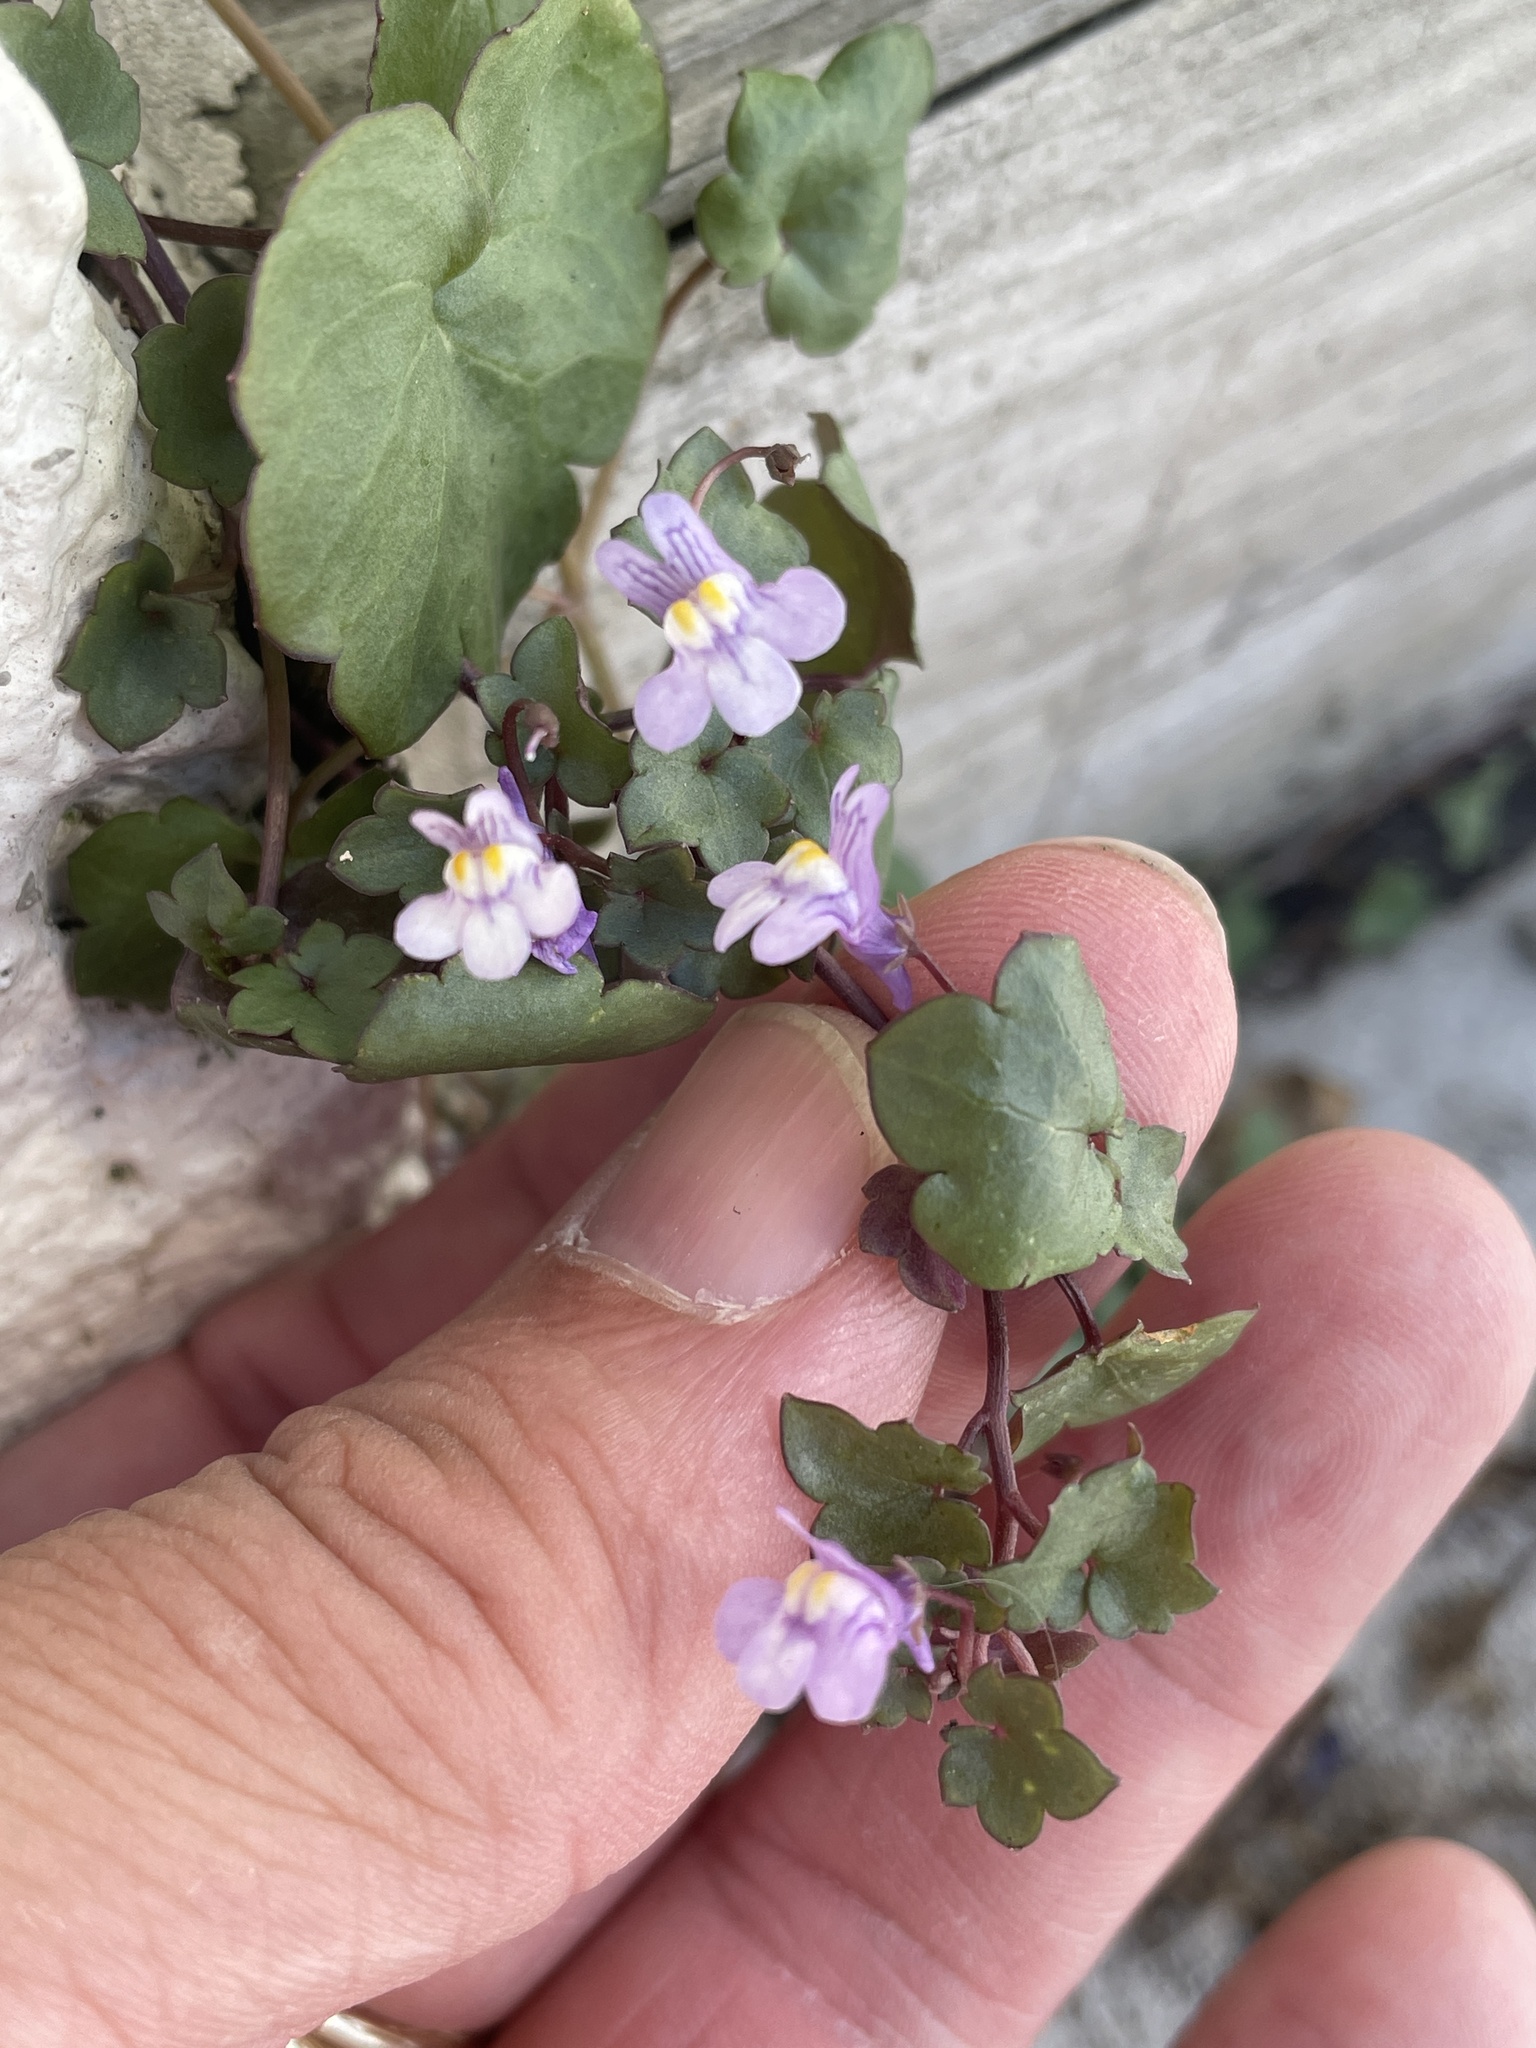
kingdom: Plantae
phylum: Tracheophyta
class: Magnoliopsida
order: Lamiales
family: Plantaginaceae
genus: Cymbalaria
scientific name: Cymbalaria muralis
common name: Ivy-leaved toadflax
